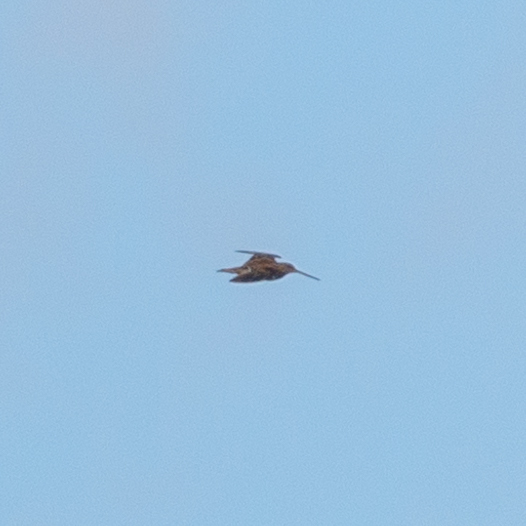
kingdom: Animalia
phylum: Chordata
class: Aves
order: Charadriiformes
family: Scolopacidae
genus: Gallinago
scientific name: Gallinago gallinago
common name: Common snipe
